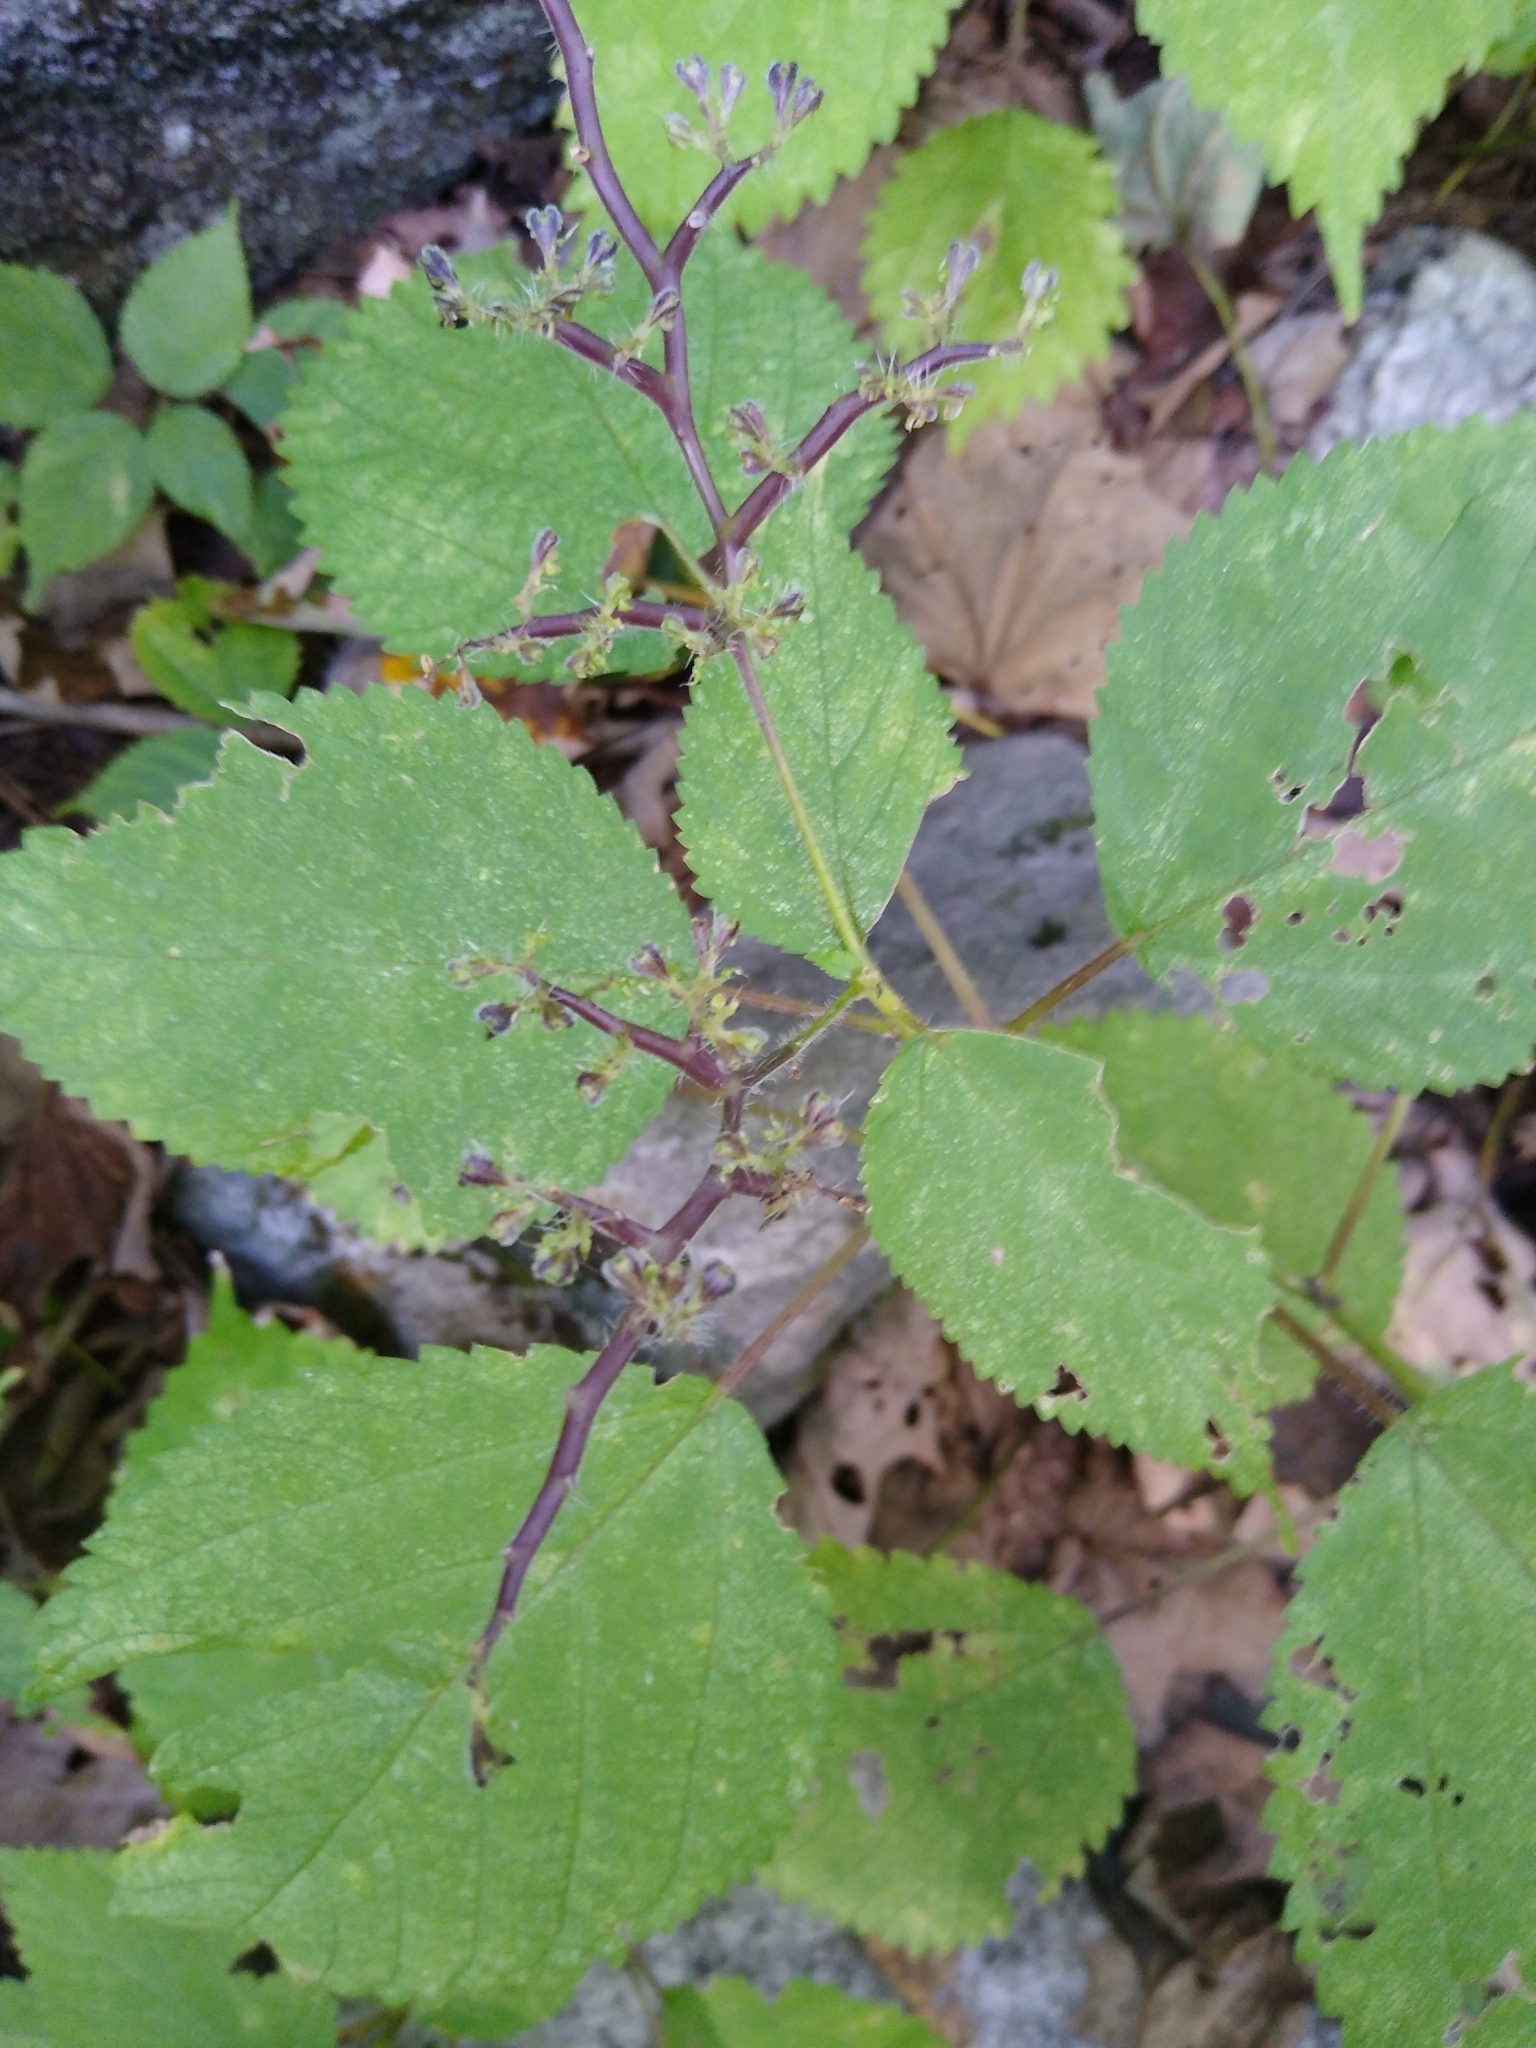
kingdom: Plantae
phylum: Tracheophyta
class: Magnoliopsida
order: Rosales
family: Urticaceae
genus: Laportea
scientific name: Laportea canadensis
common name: Canada nettle
